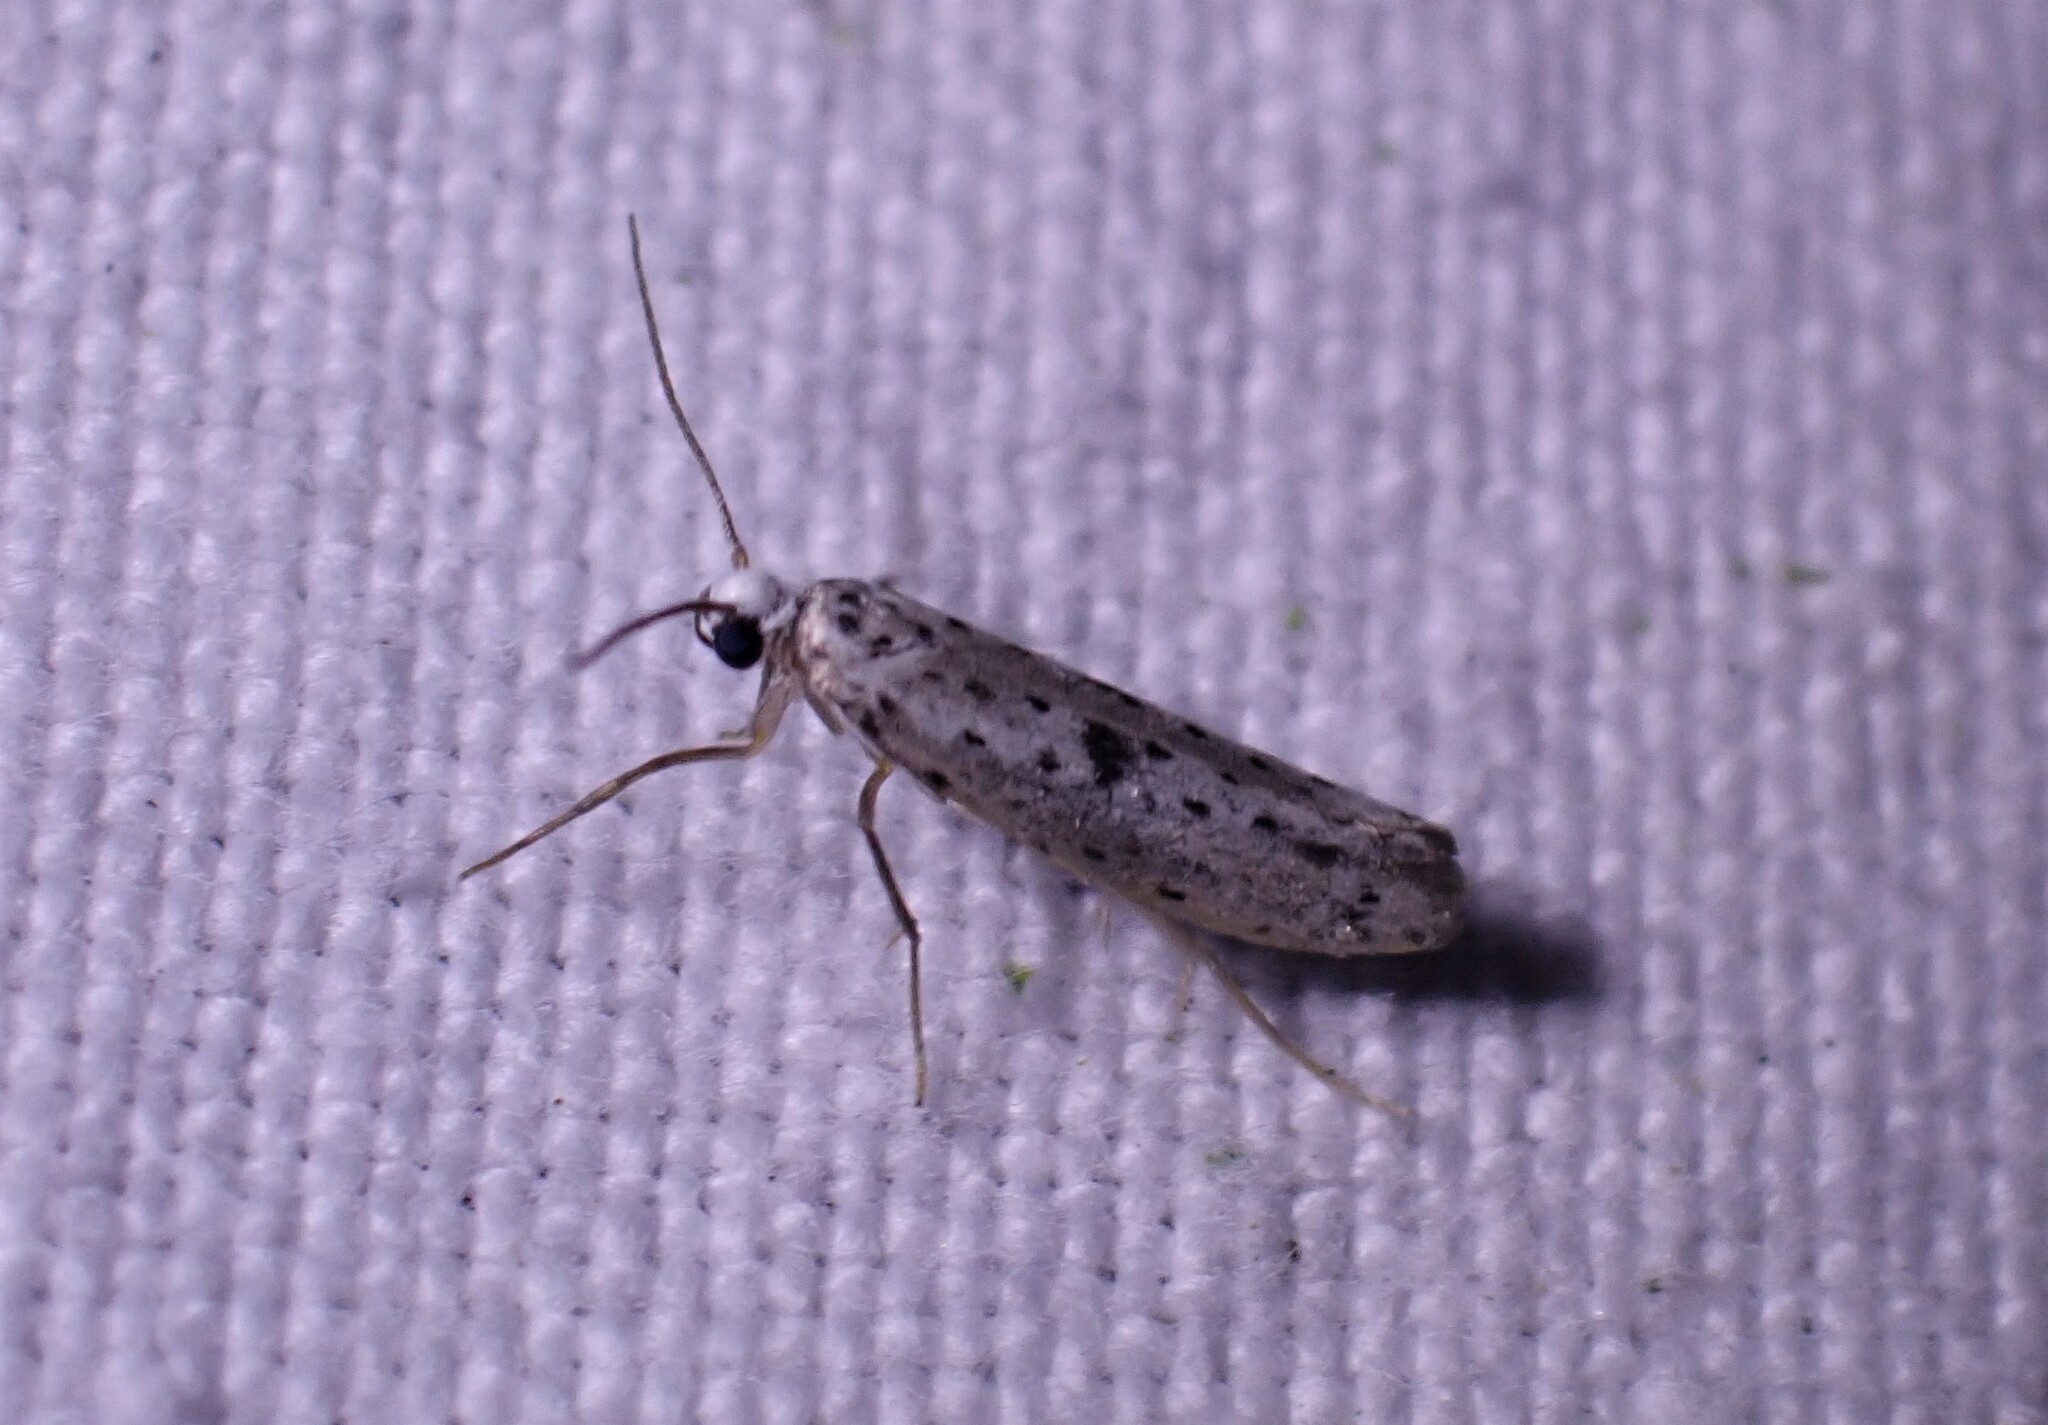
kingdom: Animalia
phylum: Arthropoda
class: Insecta
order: Lepidoptera
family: Yponomeutidae
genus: Yponomeuta
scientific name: Yponomeuta plumbella
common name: Black-tipped ermine
